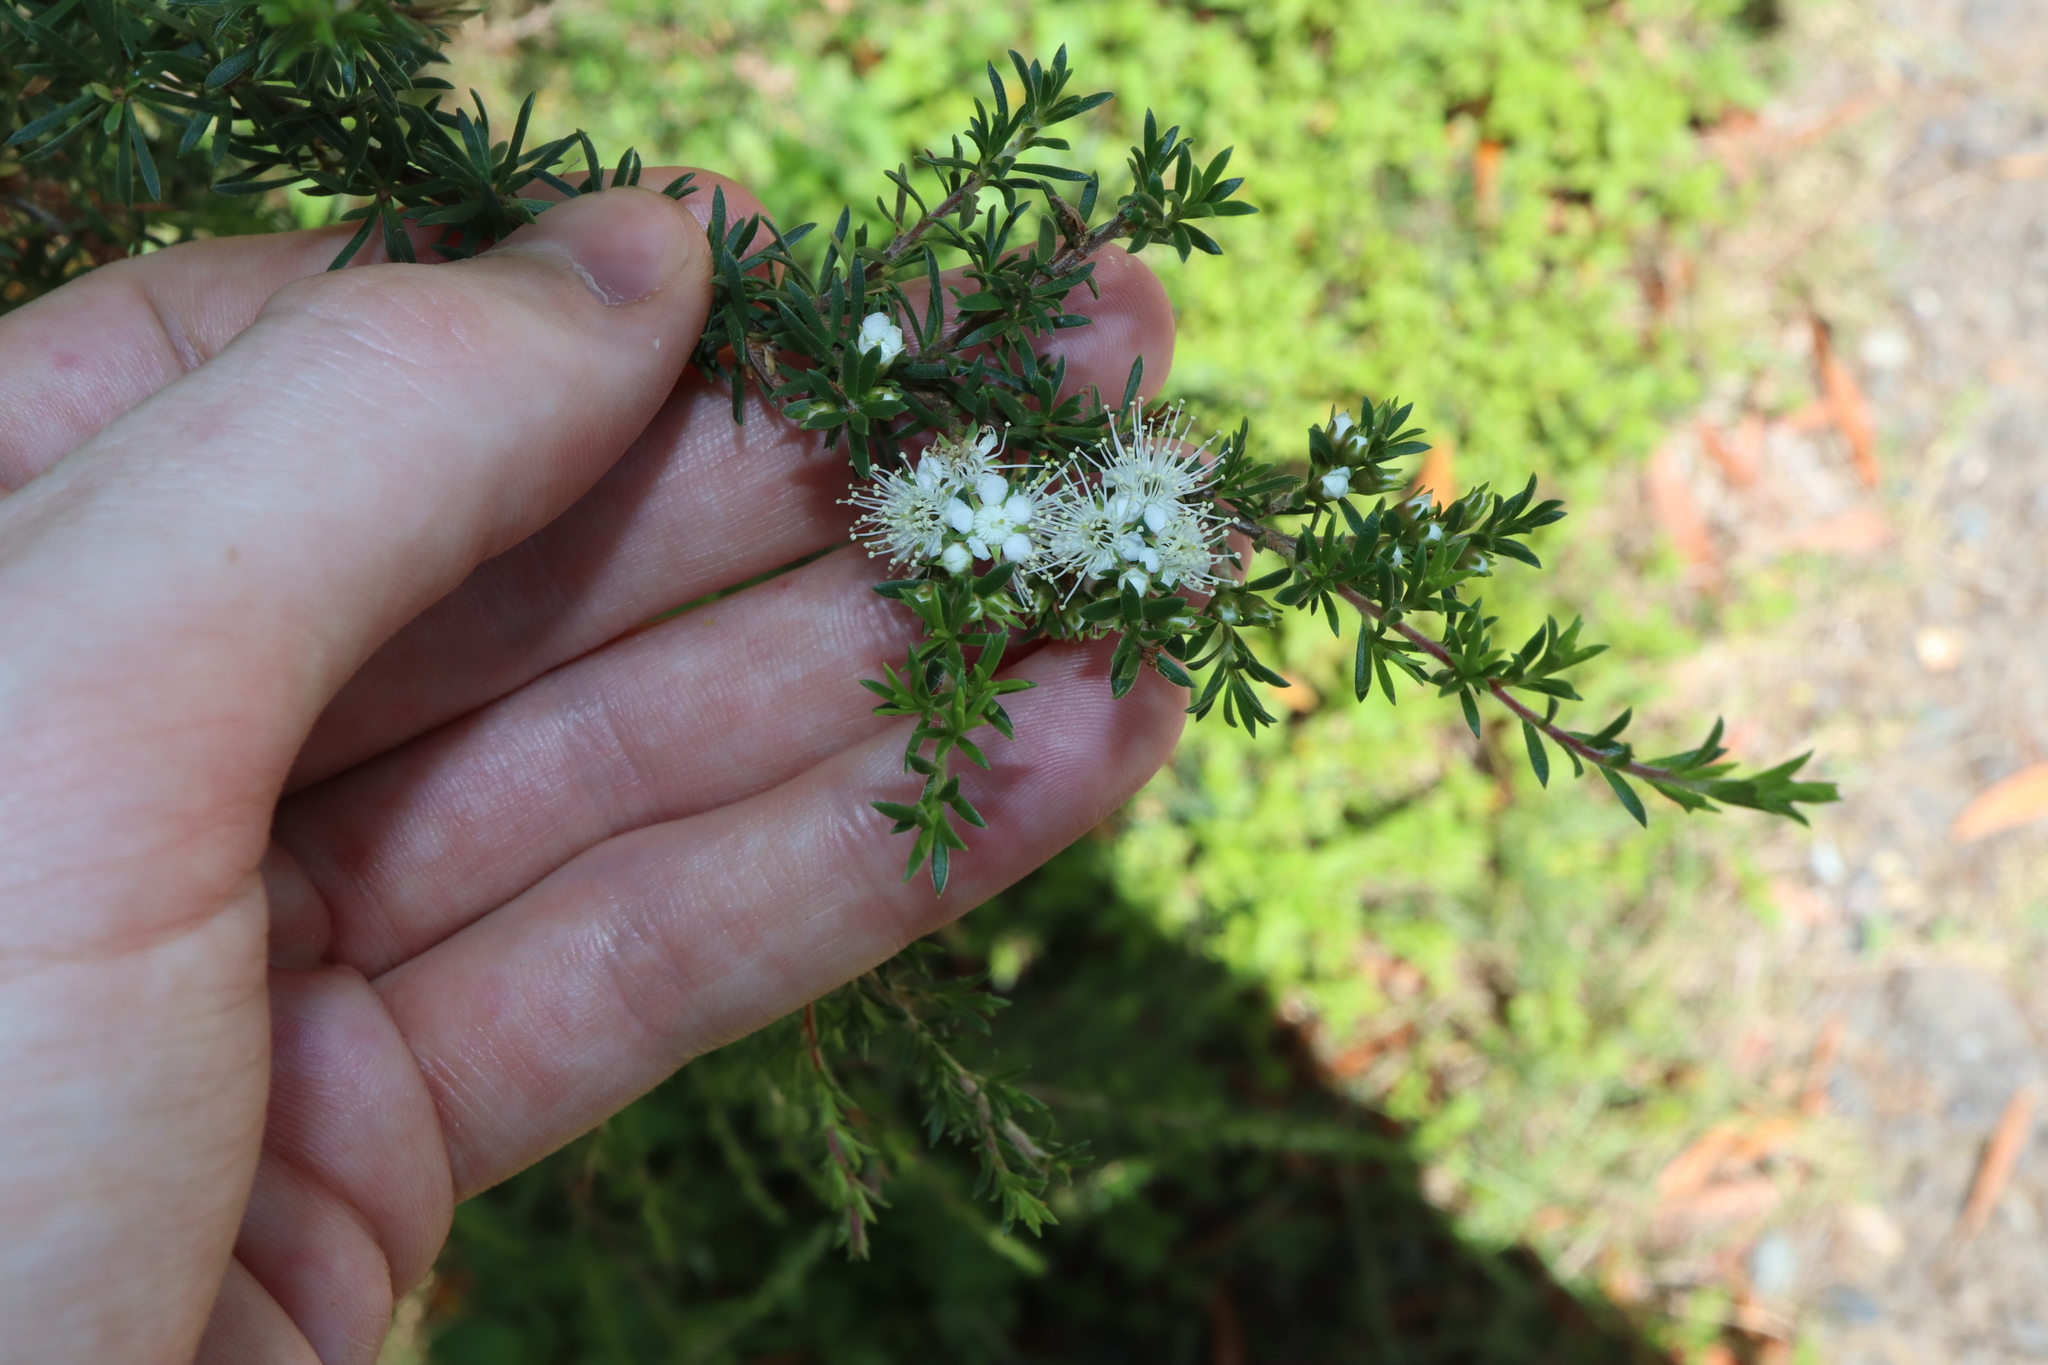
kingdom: Plantae
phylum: Tracheophyta
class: Magnoliopsida
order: Myrtales
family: Myrtaceae
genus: Kunzea
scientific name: Kunzea ambigua
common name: Tickbush
